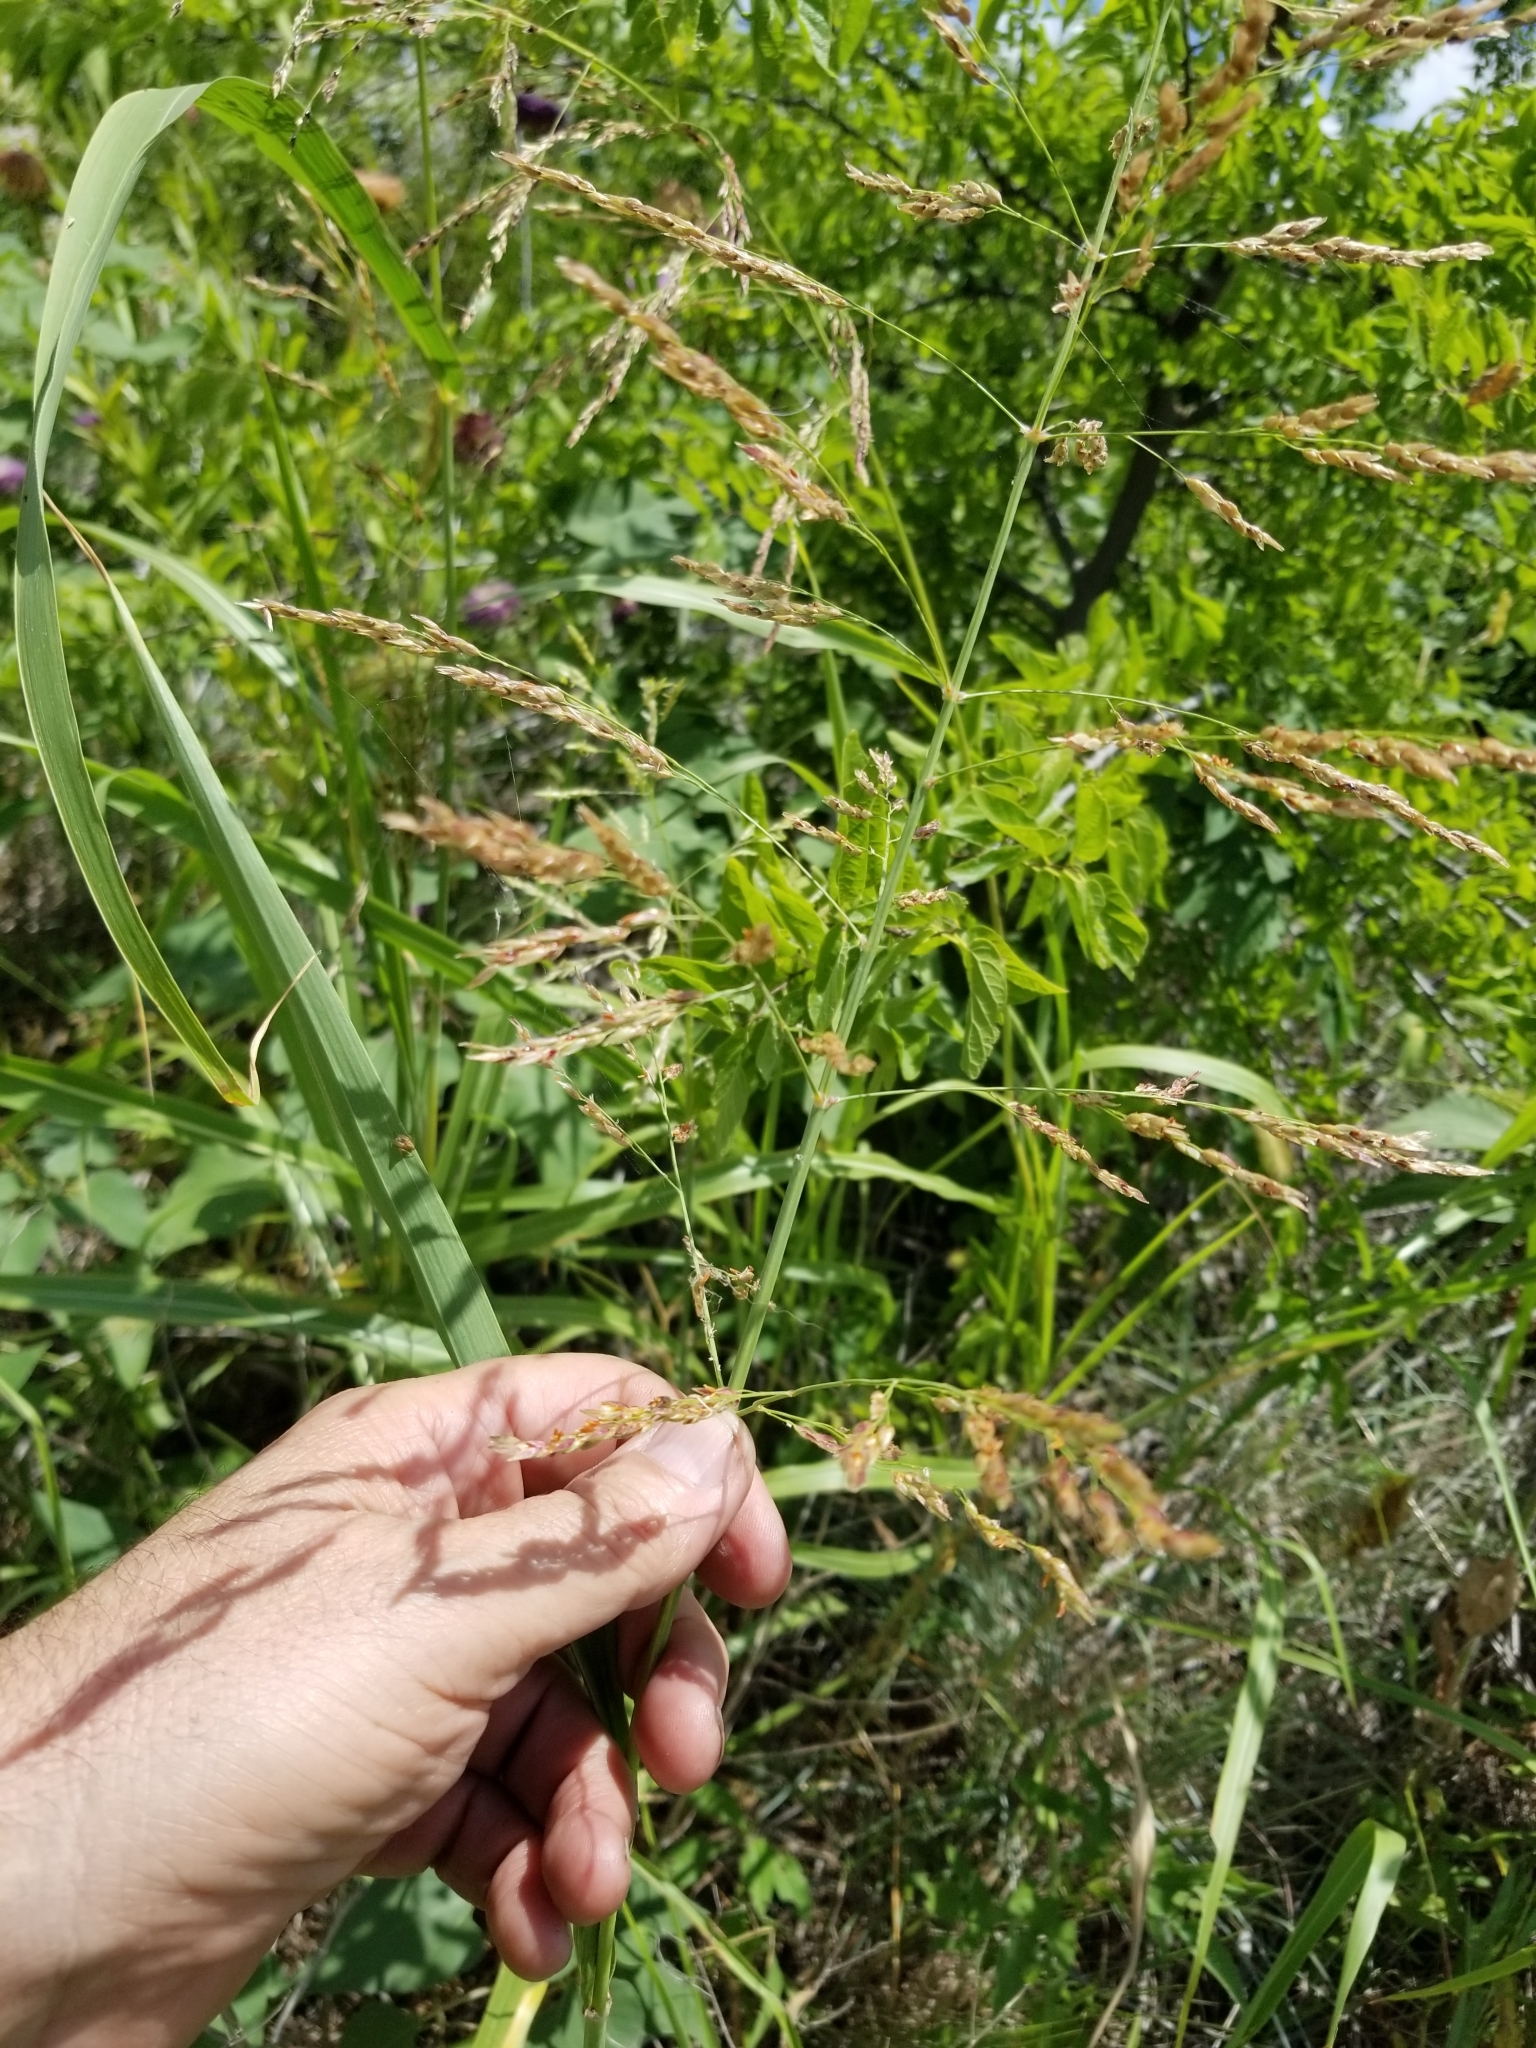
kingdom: Plantae
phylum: Tracheophyta
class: Liliopsida
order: Poales
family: Poaceae
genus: Sorghum
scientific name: Sorghum halepense
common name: Johnson-grass
